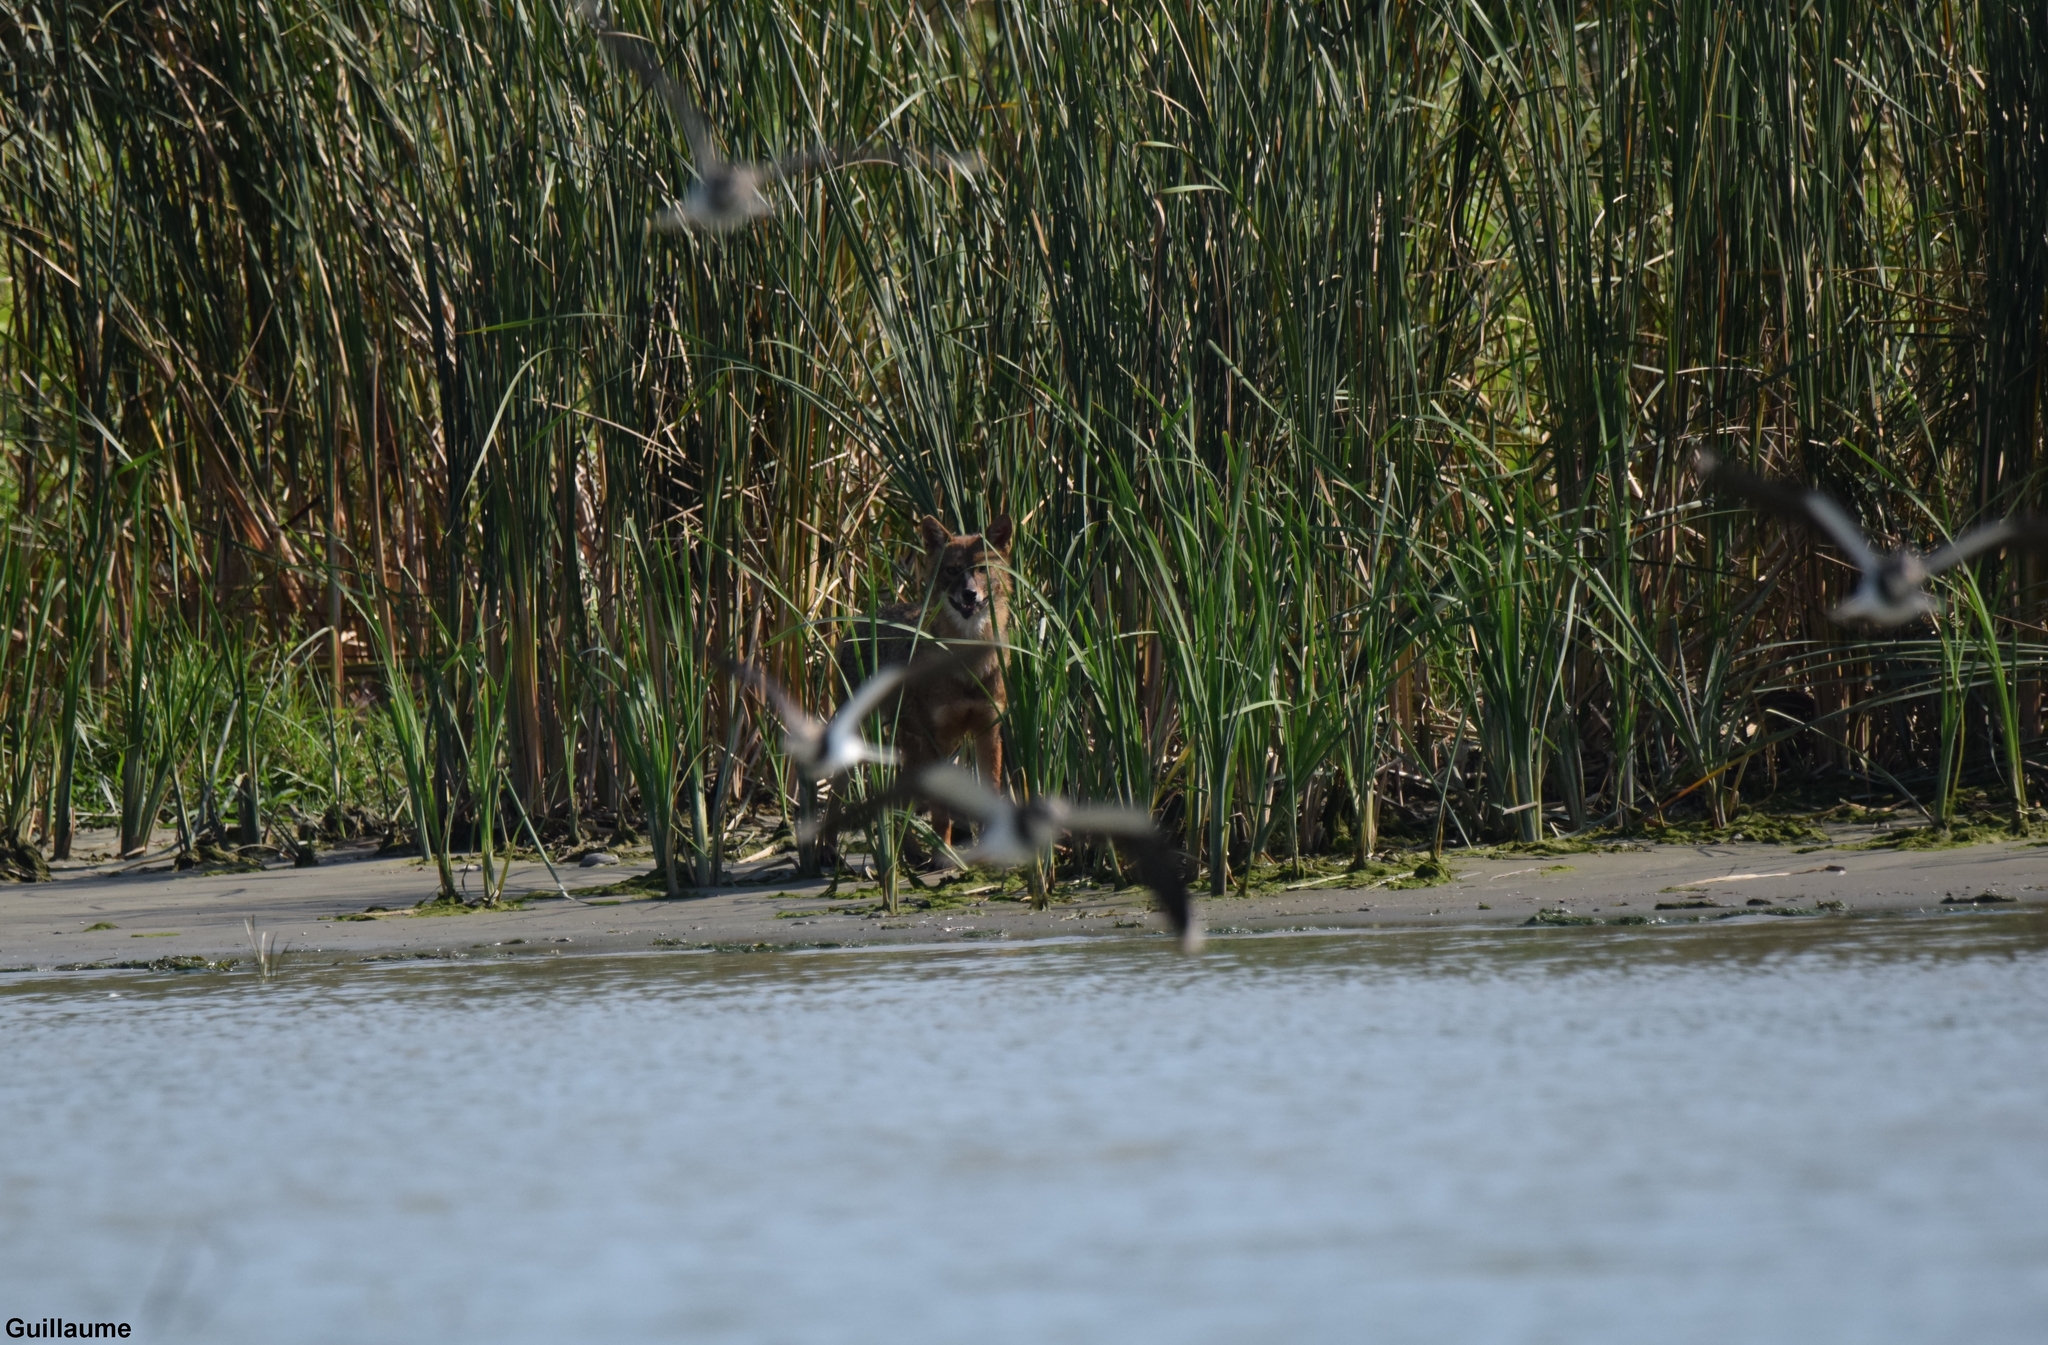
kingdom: Animalia
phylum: Chordata
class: Mammalia
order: Carnivora
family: Canidae
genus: Canis
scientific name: Canis aureus
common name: Golden jackal
